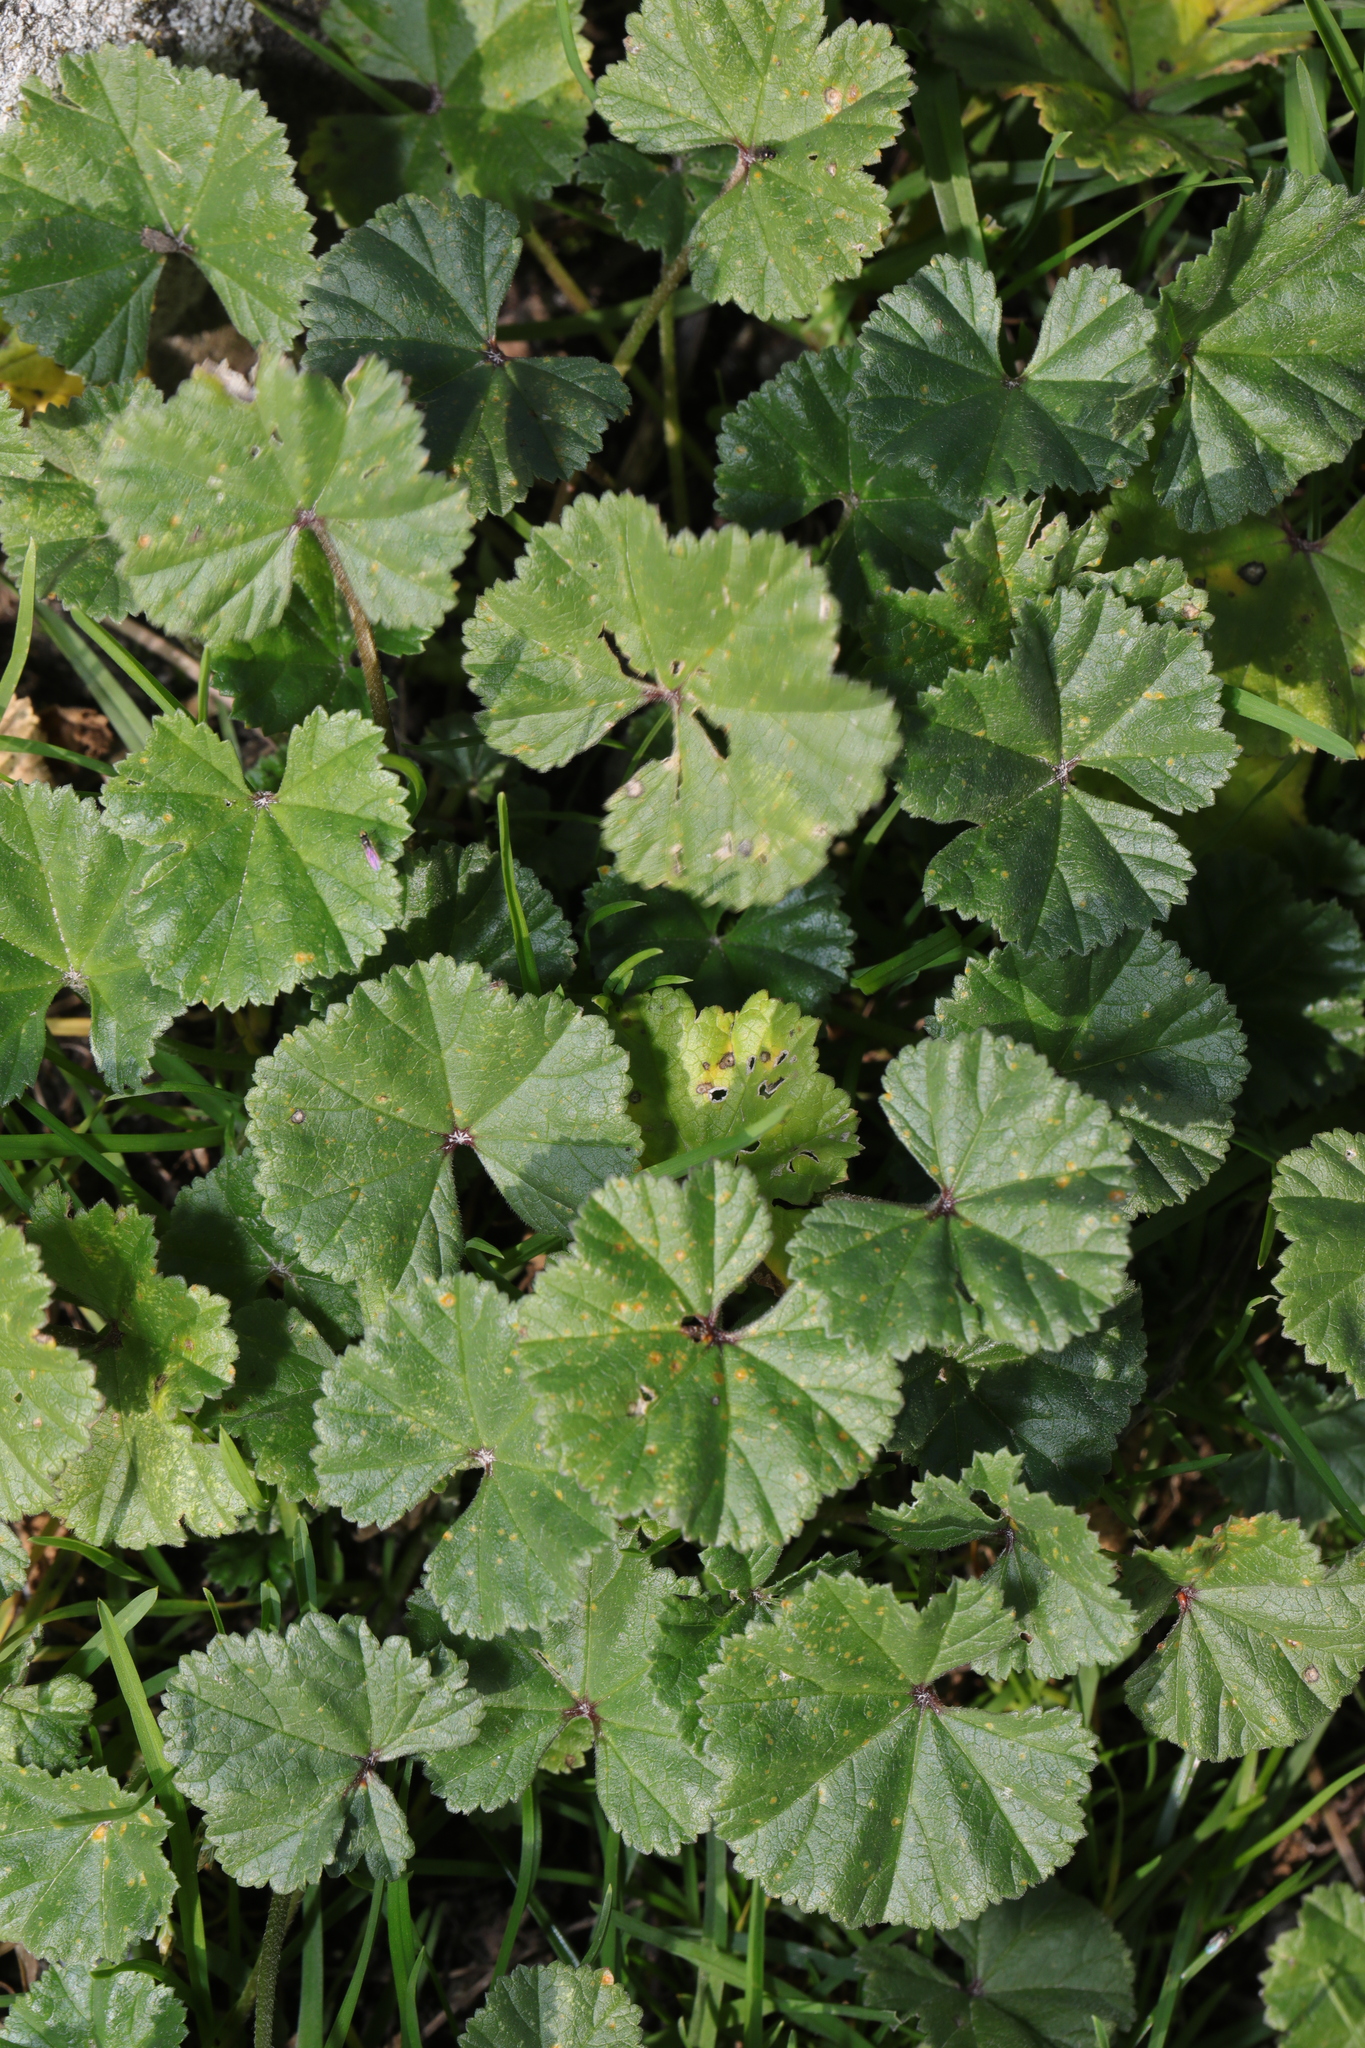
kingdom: Plantae
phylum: Tracheophyta
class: Magnoliopsida
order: Malvales
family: Malvaceae
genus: Malva
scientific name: Malva sylvestris
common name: Common mallow
